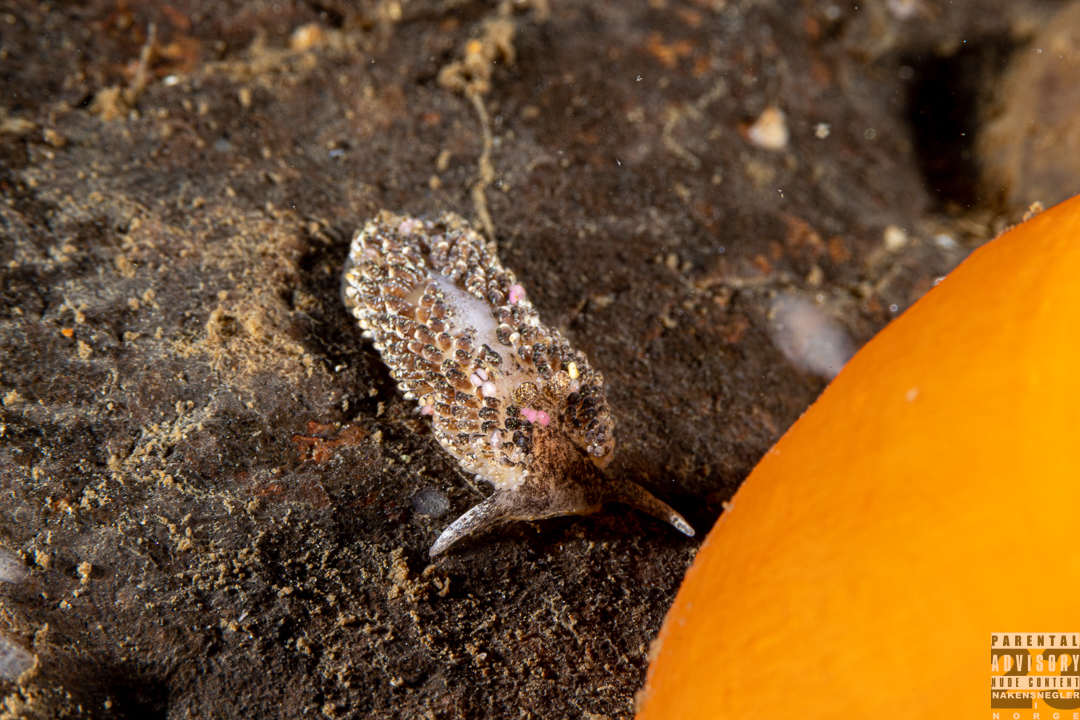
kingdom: Animalia
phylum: Mollusca
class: Gastropoda
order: Nudibranchia
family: Aeolidiidae
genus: Aeolidia
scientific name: Aeolidia papillosa
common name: Common grey sea slug
